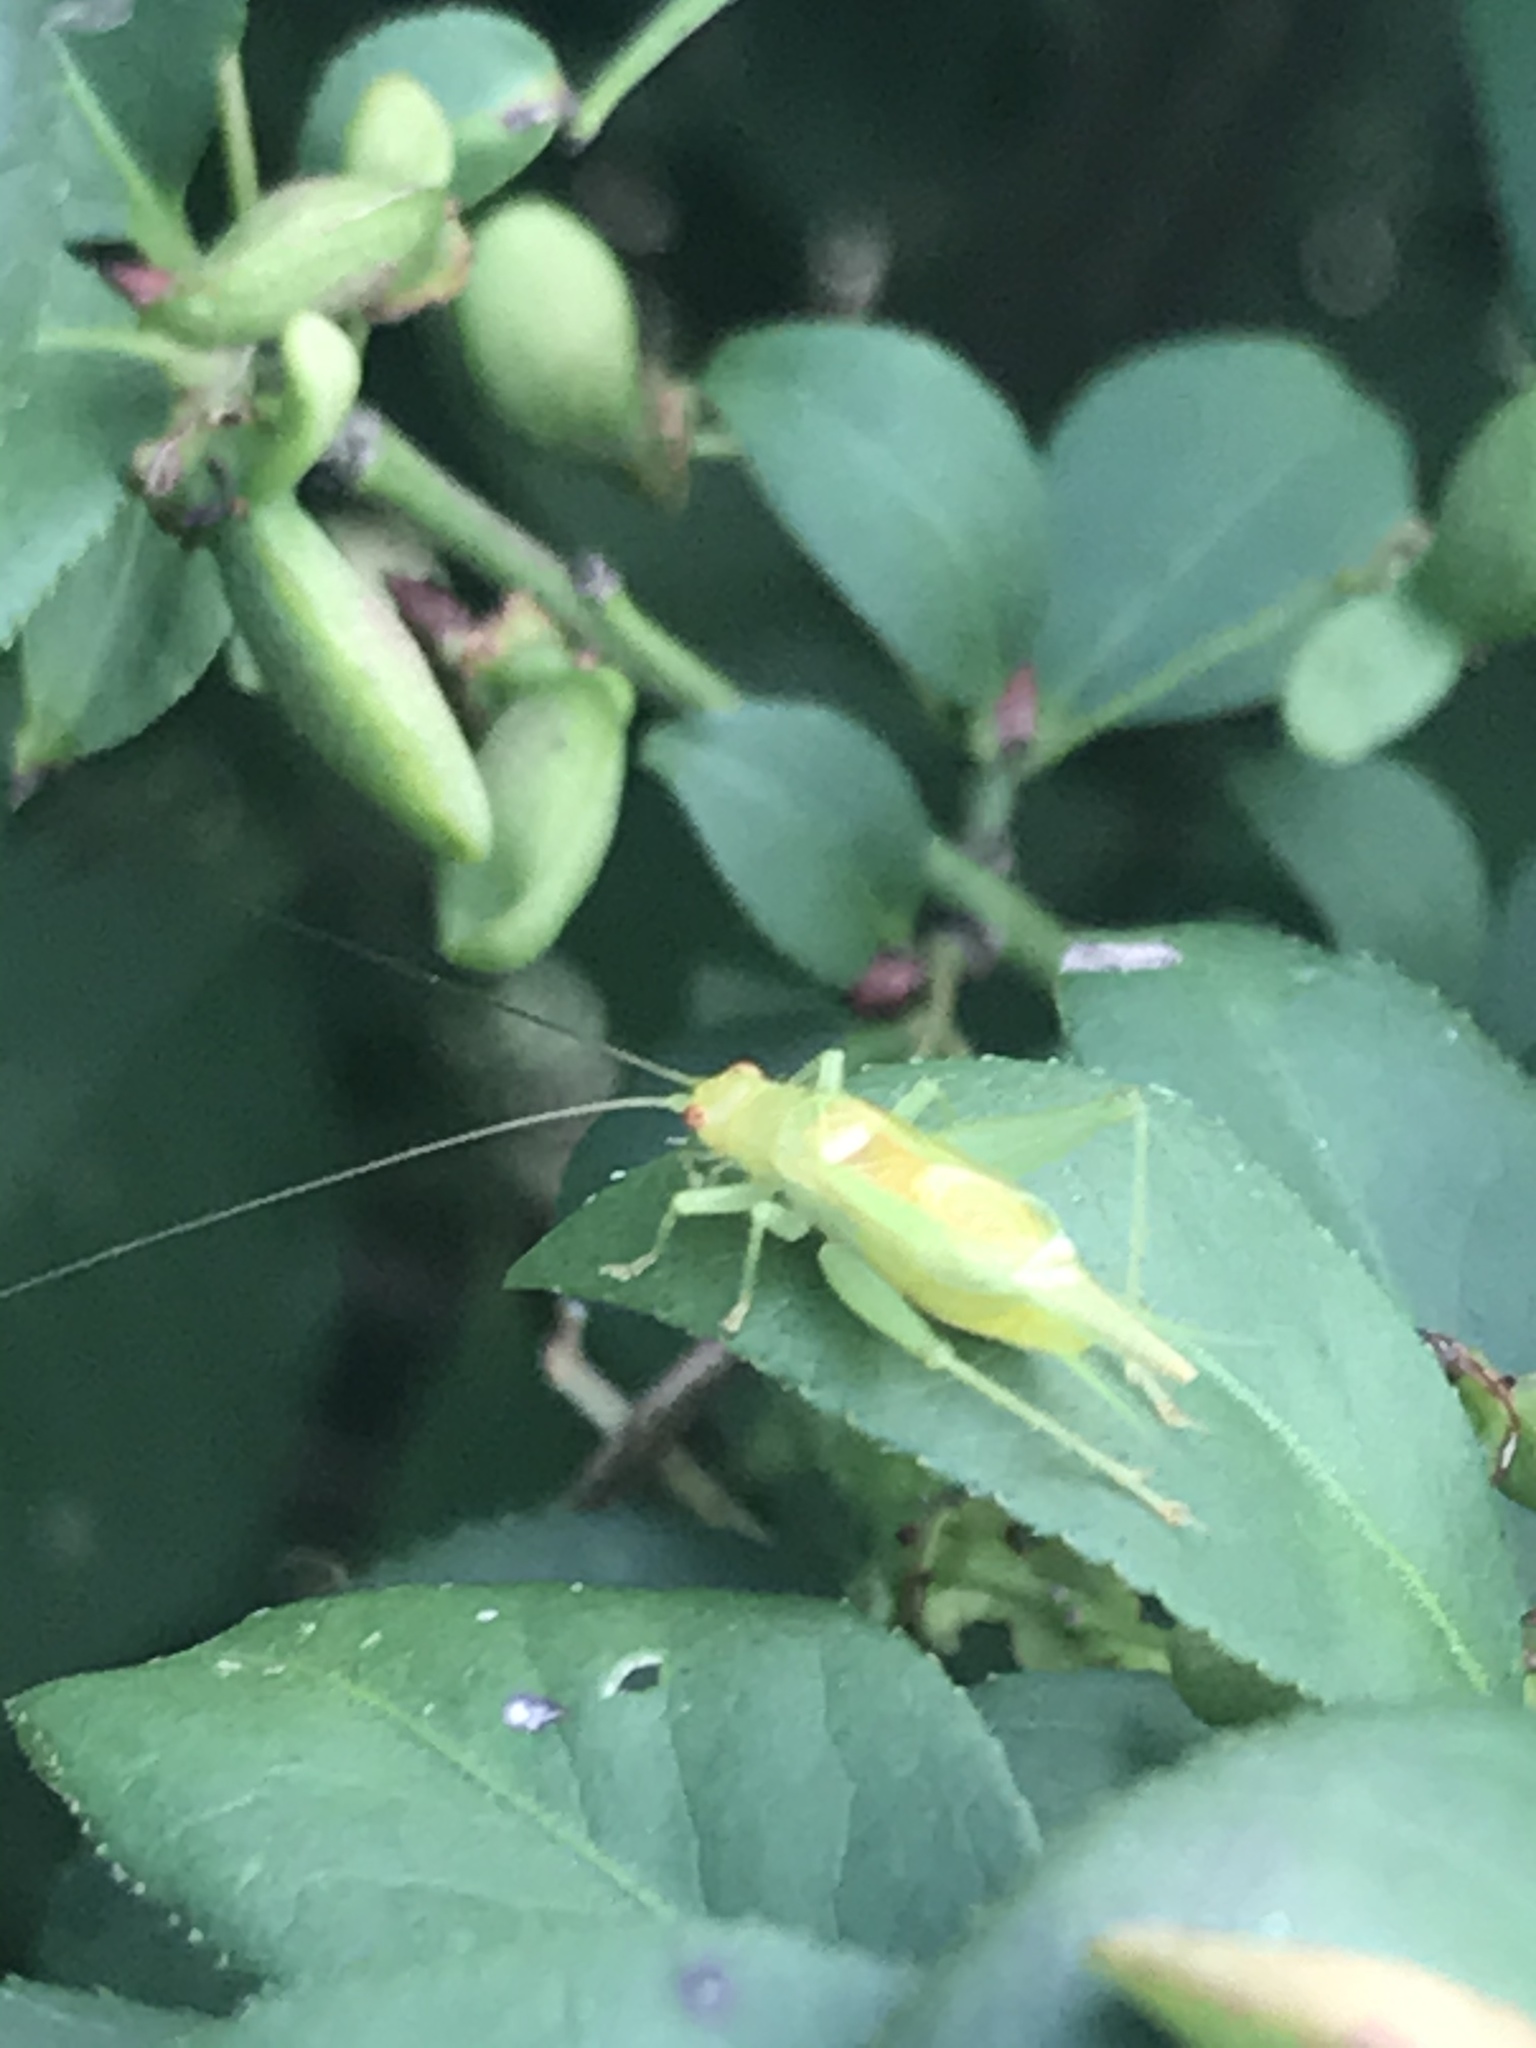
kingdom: Animalia
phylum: Arthropoda
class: Insecta
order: Orthoptera
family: Trigonidiidae
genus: Cyrtoxipha
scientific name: Cyrtoxipha columbiana
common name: Columbian trig
